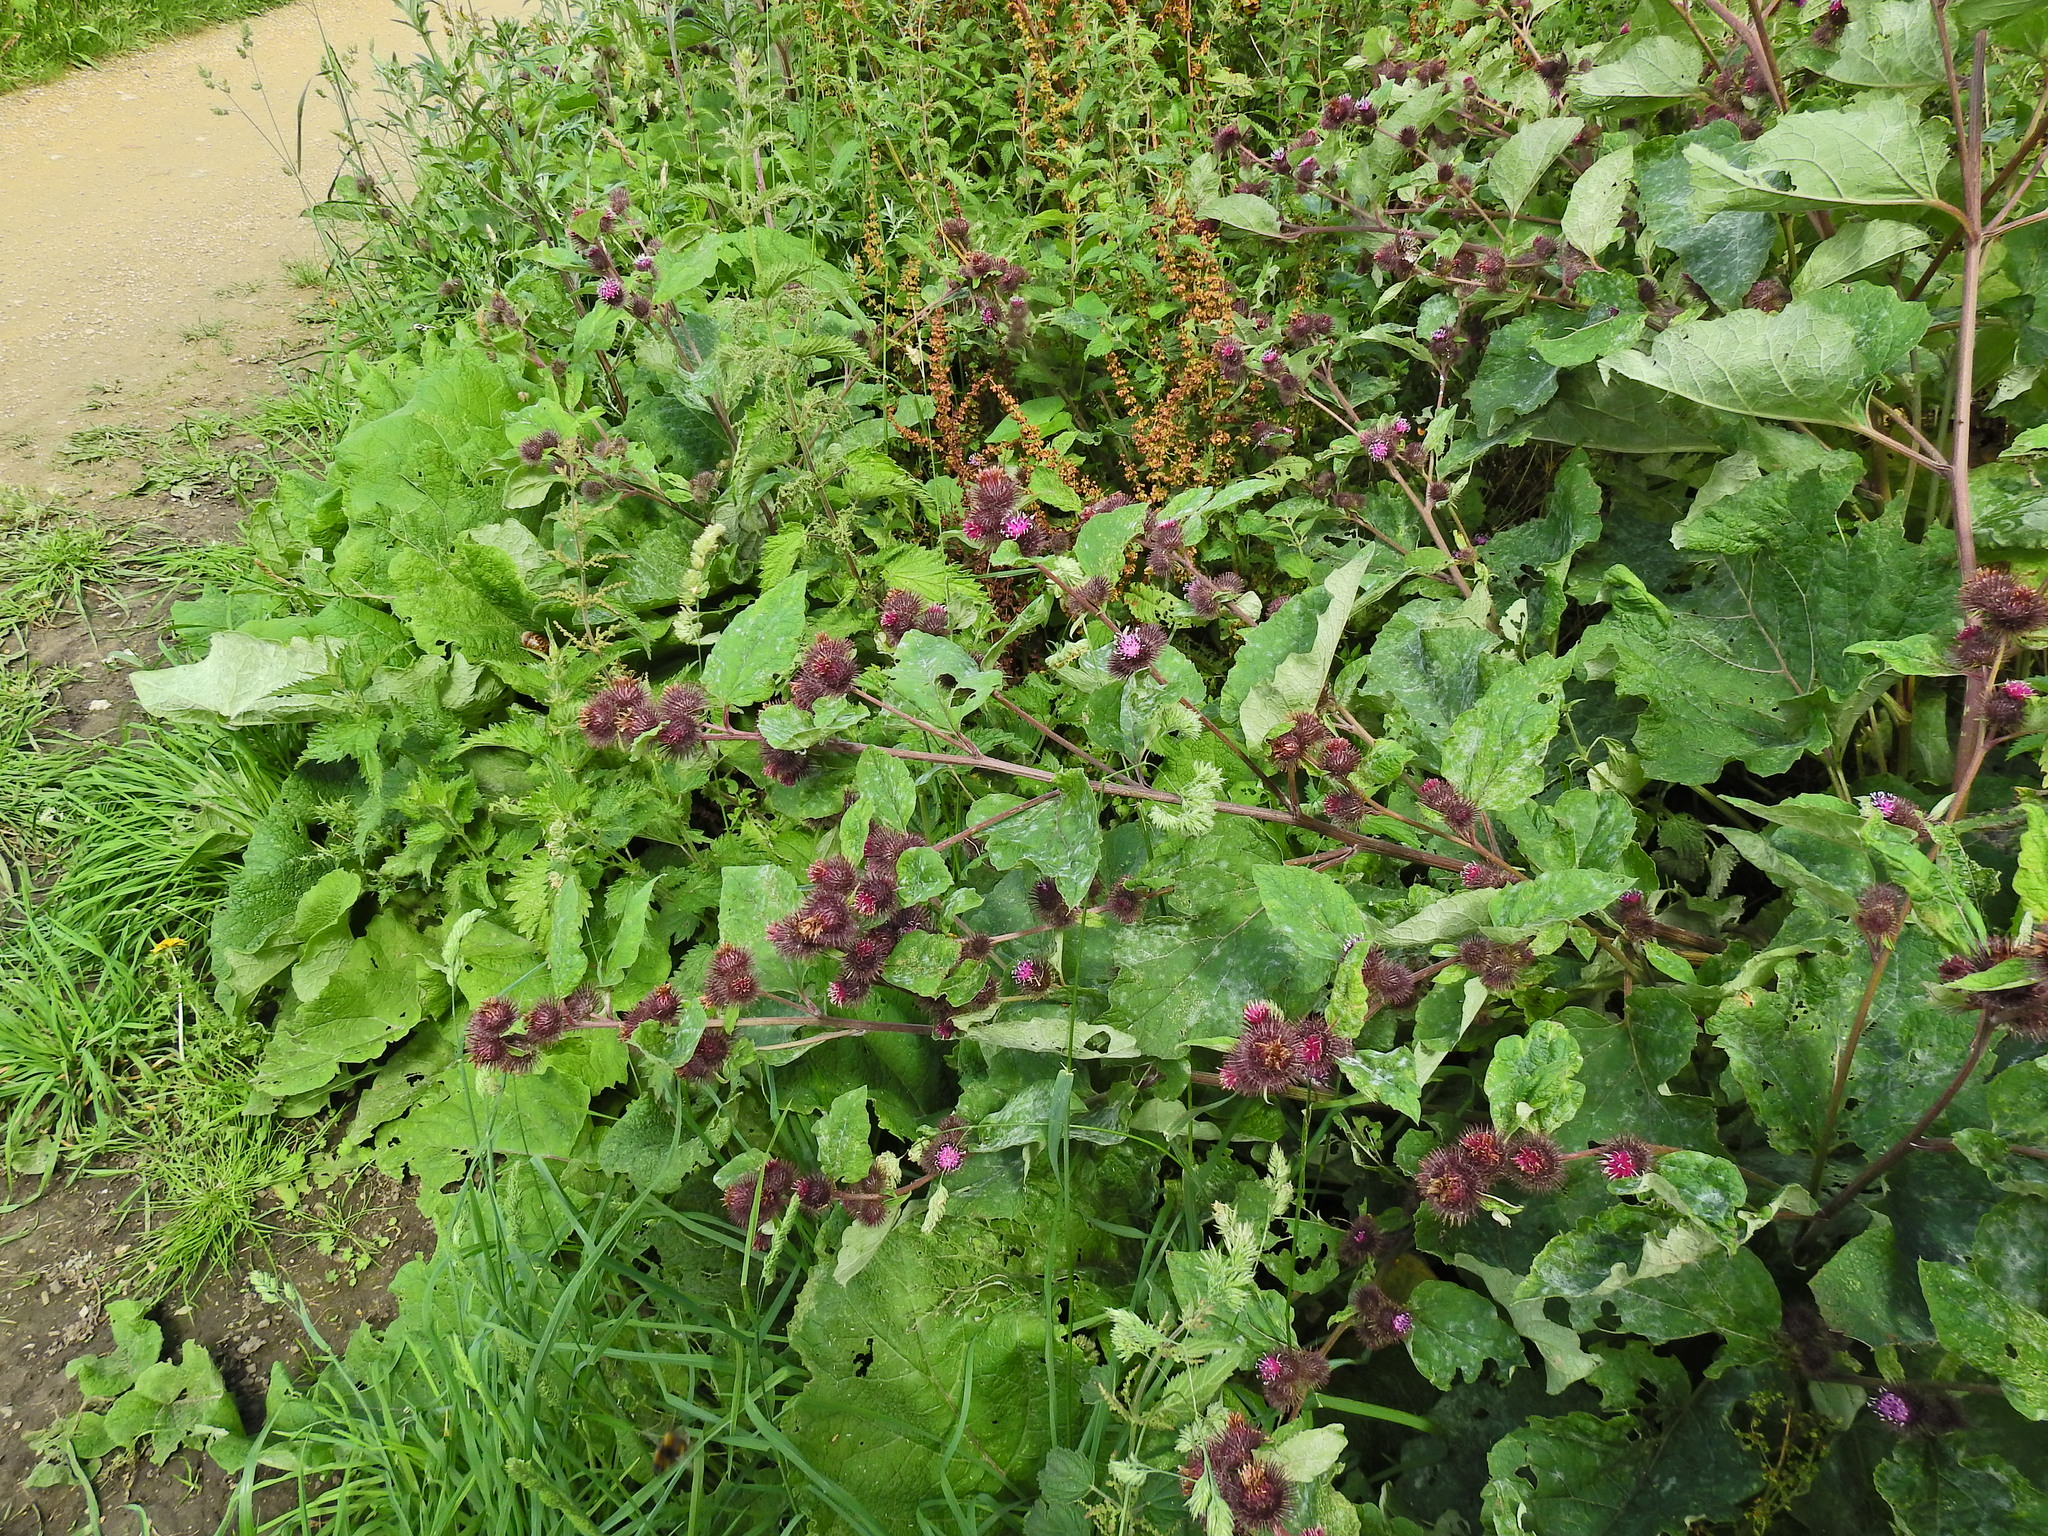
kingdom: Plantae
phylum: Tracheophyta
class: Magnoliopsida
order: Asterales
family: Asteraceae
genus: Arctium
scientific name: Arctium minus
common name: Lesser burdock
